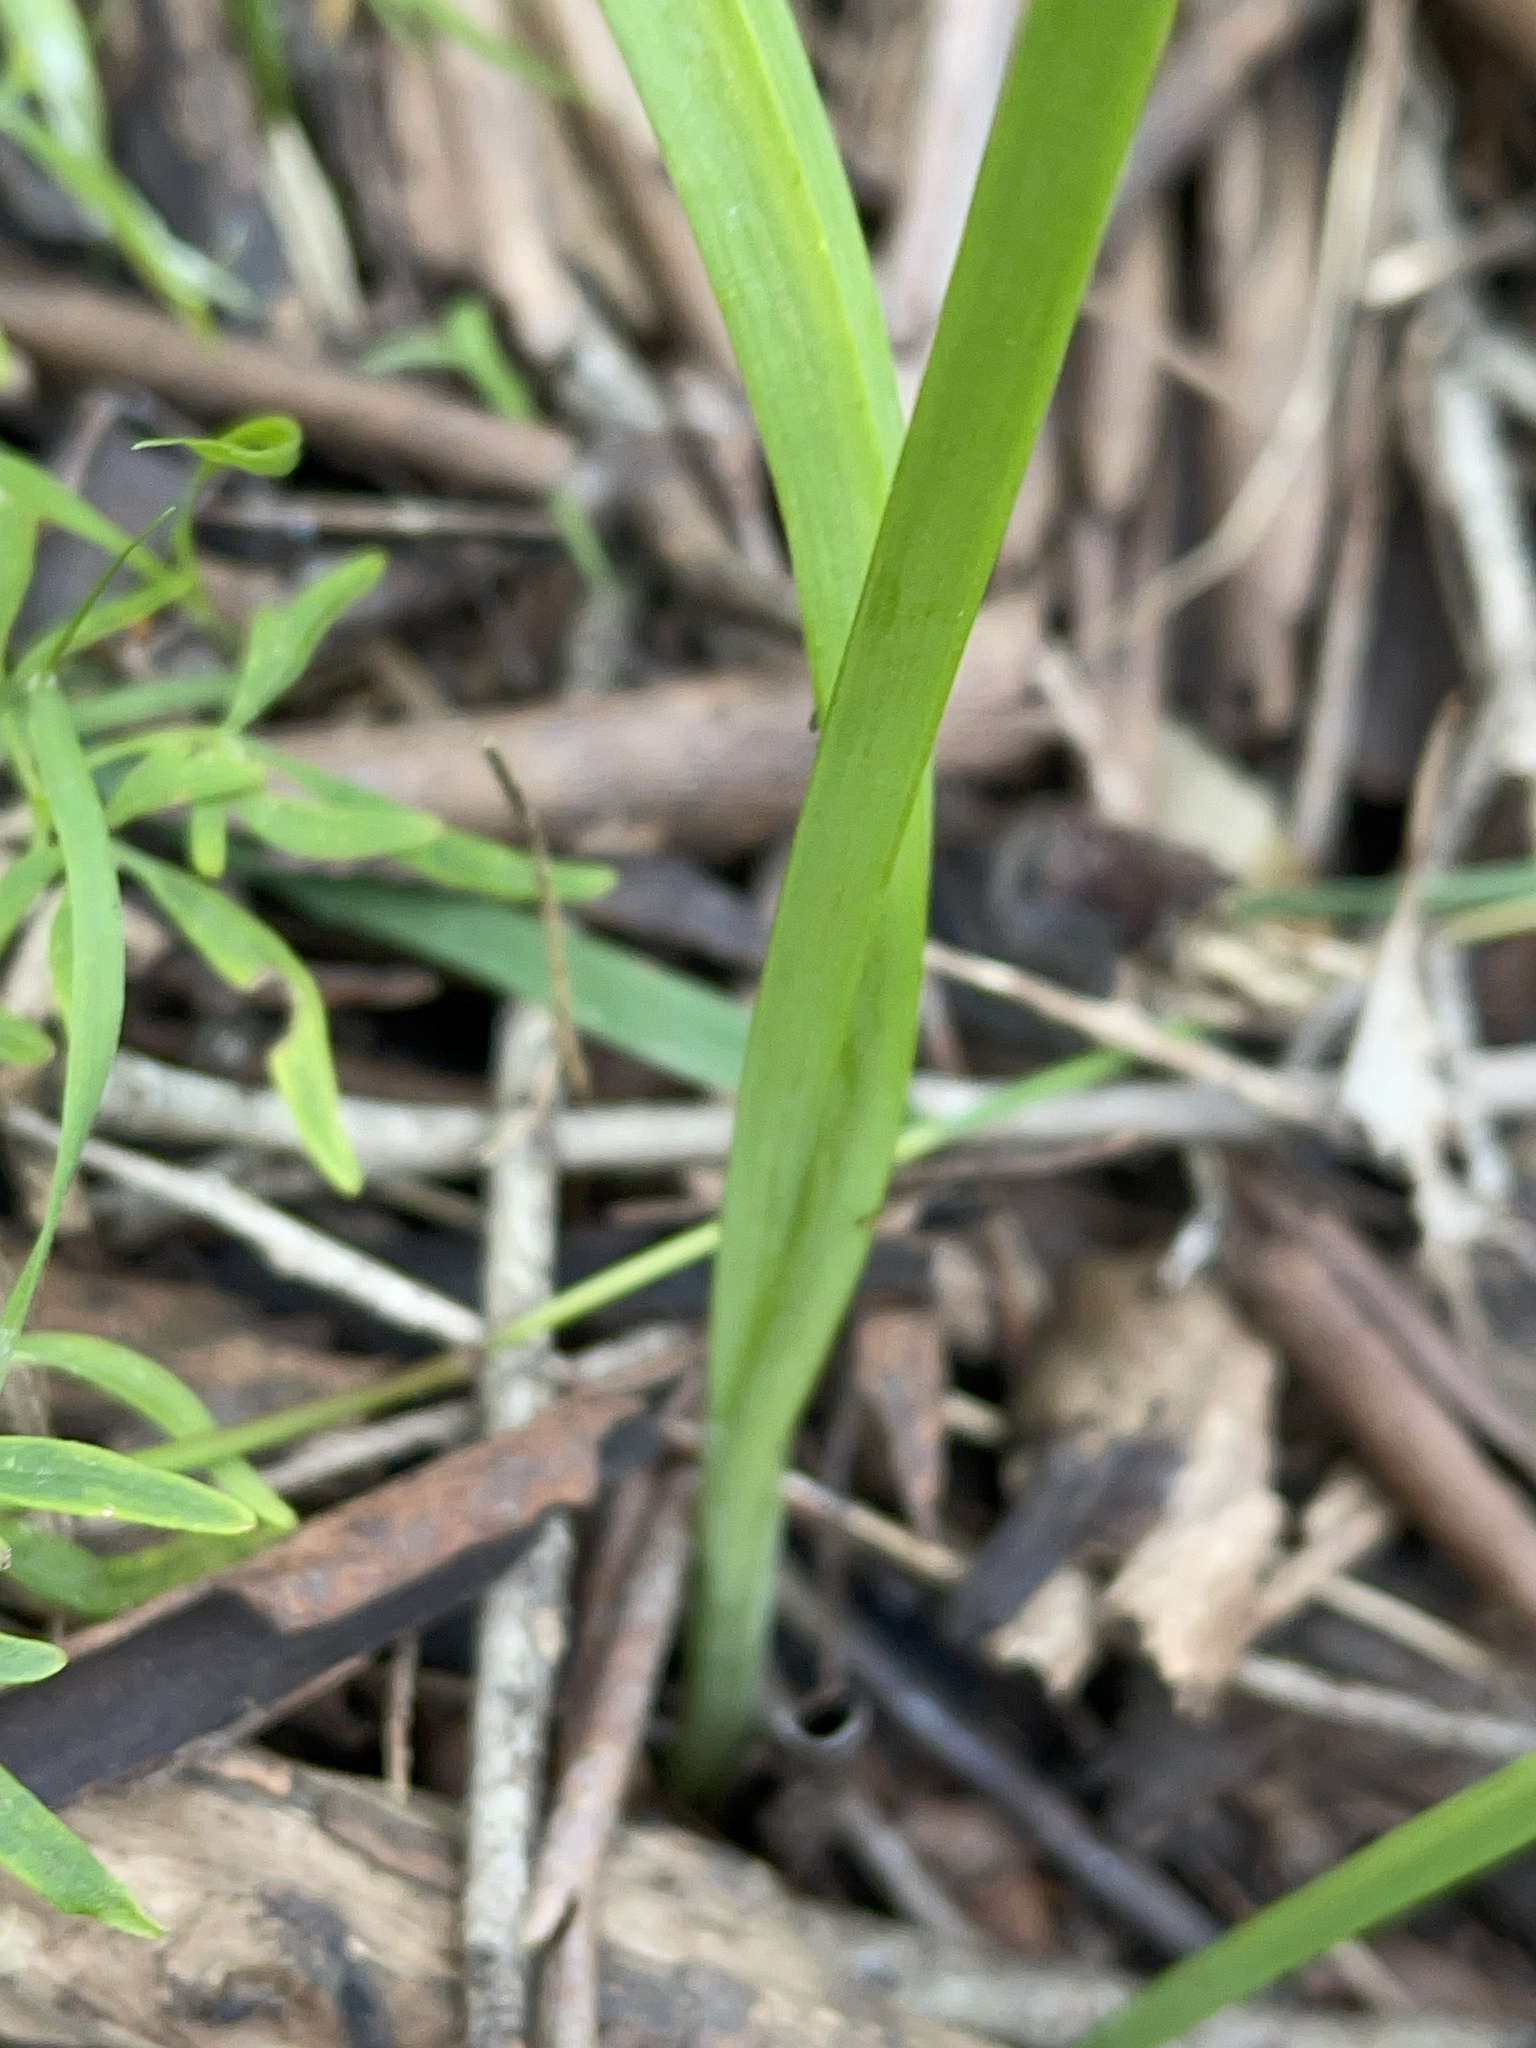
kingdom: Plantae
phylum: Tracheophyta
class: Liliopsida
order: Asparagales
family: Amaryllidaceae
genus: Allium
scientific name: Allium triquetrum
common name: Three-cornered garlic
